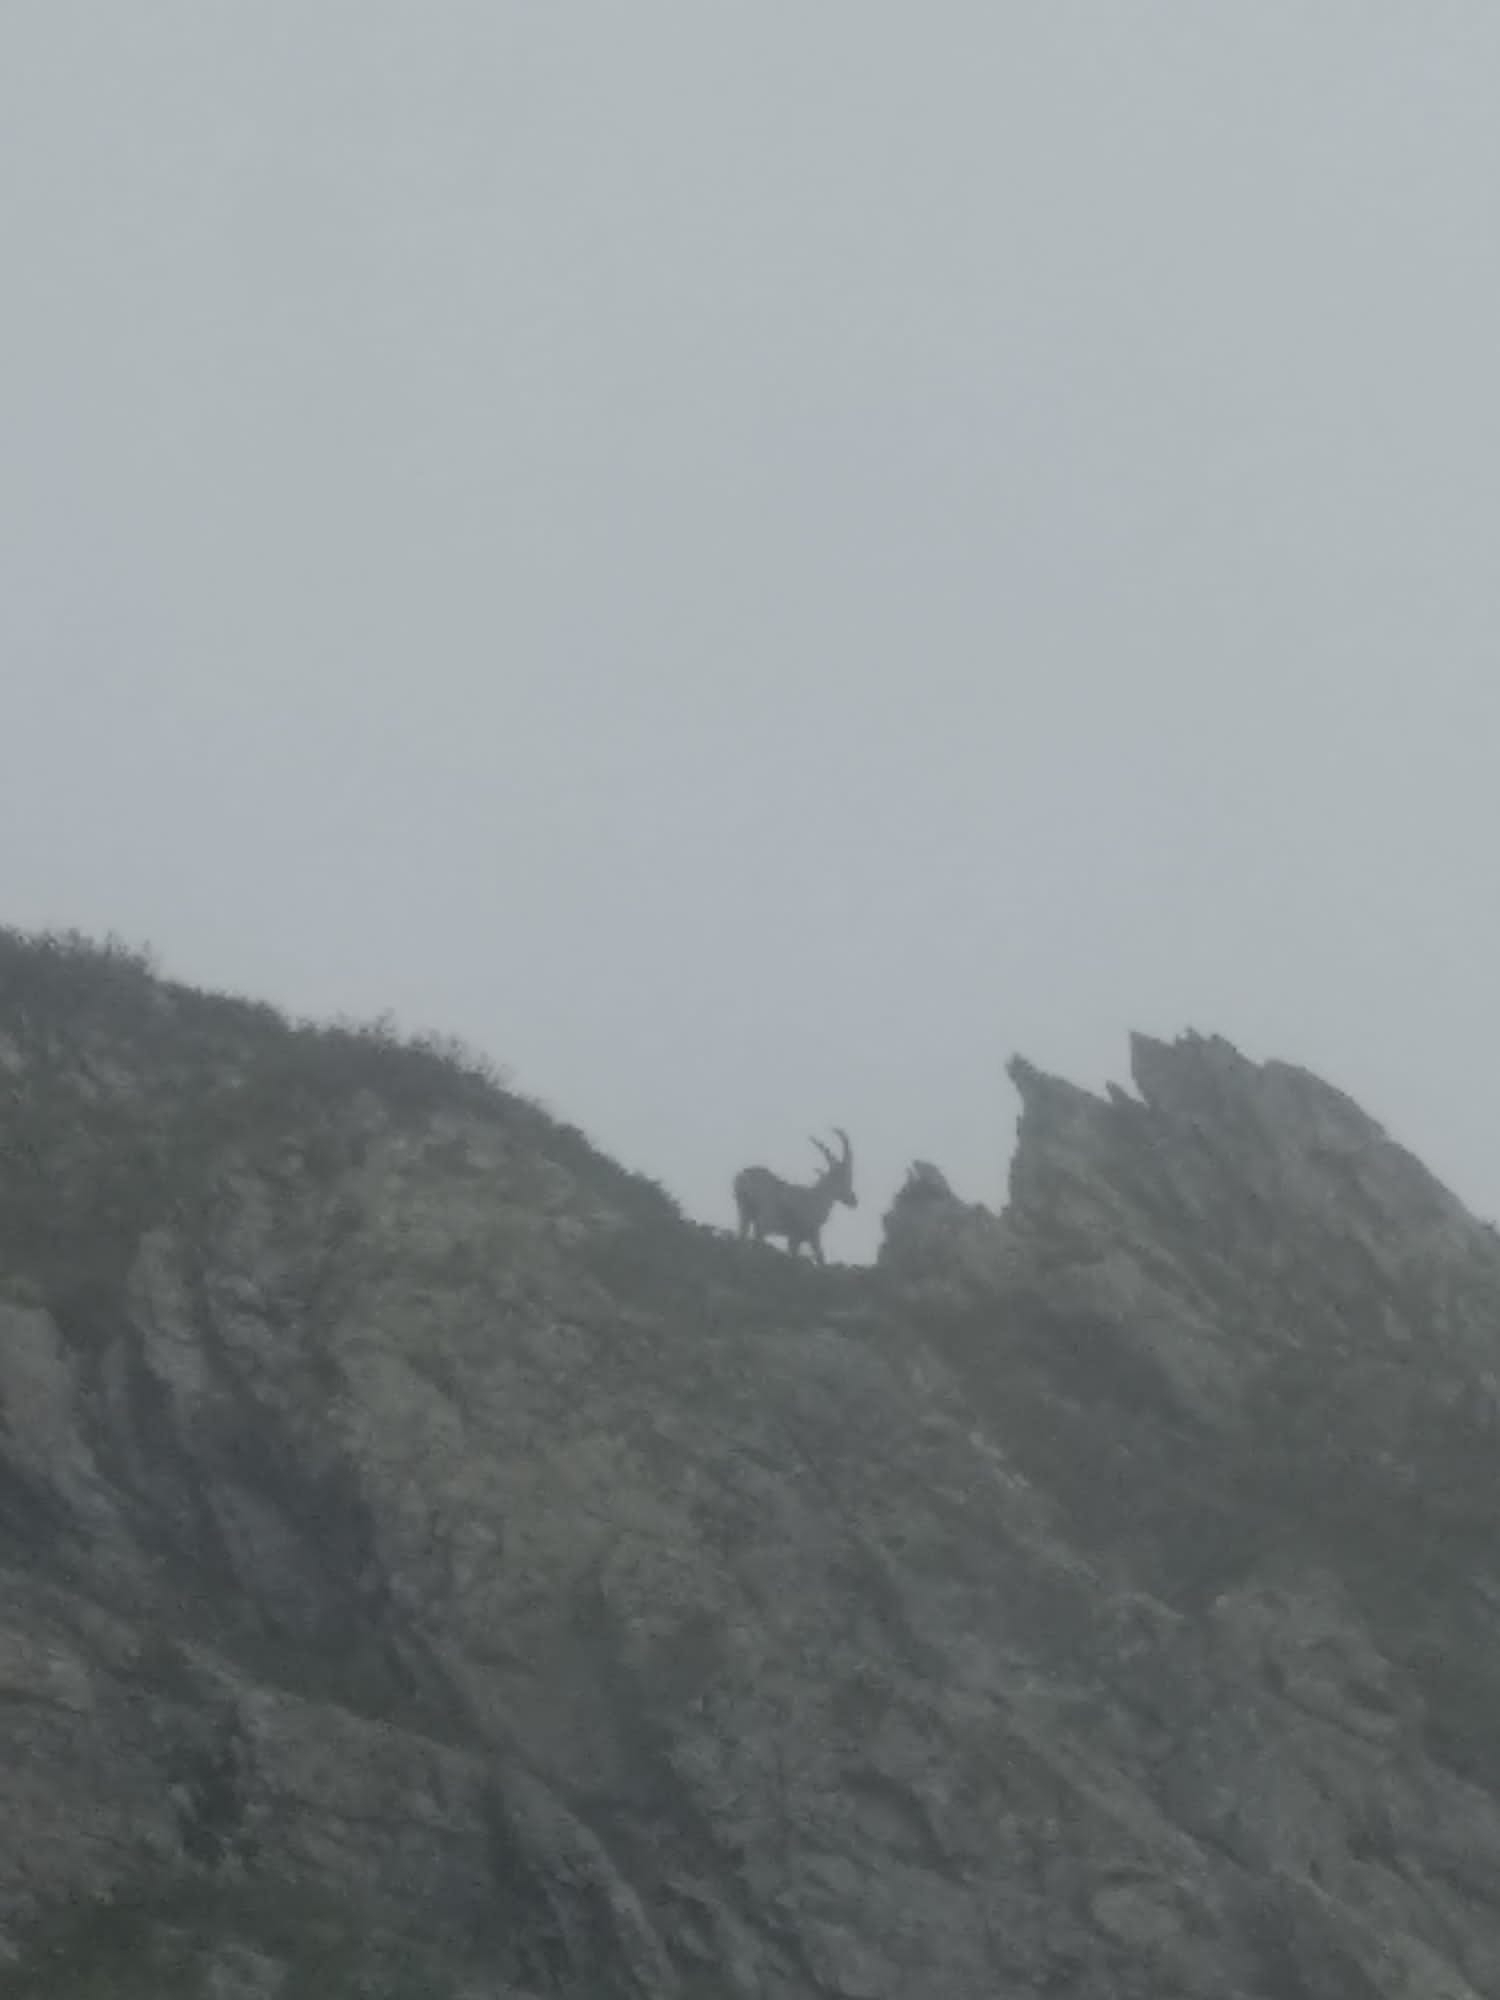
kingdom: Animalia
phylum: Chordata
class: Mammalia
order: Artiodactyla
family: Bovidae
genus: Capra
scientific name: Capra ibex
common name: Alpine ibex
